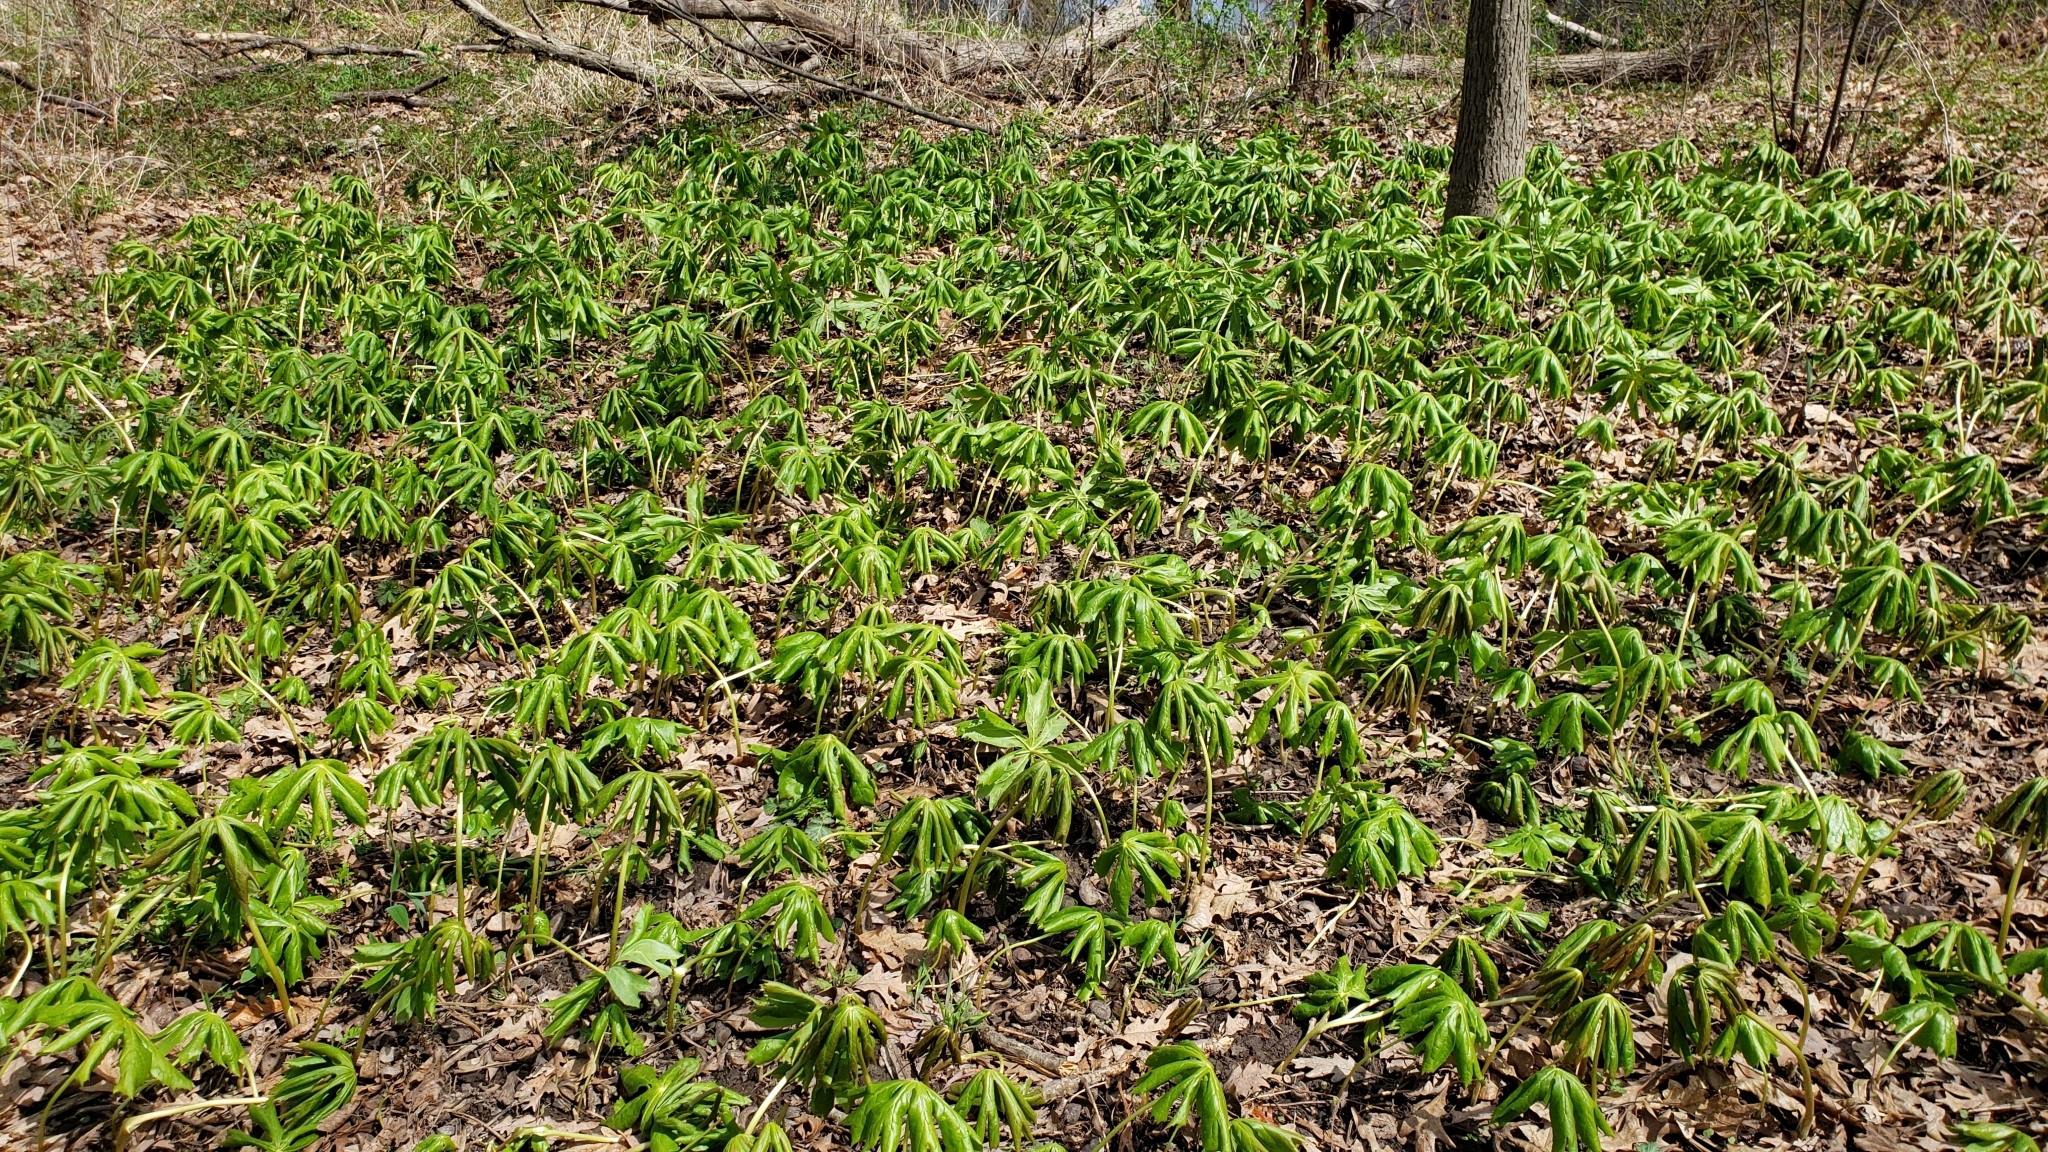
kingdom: Plantae
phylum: Tracheophyta
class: Magnoliopsida
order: Ranunculales
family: Berberidaceae
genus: Podophyllum
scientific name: Podophyllum peltatum
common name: Wild mandrake
